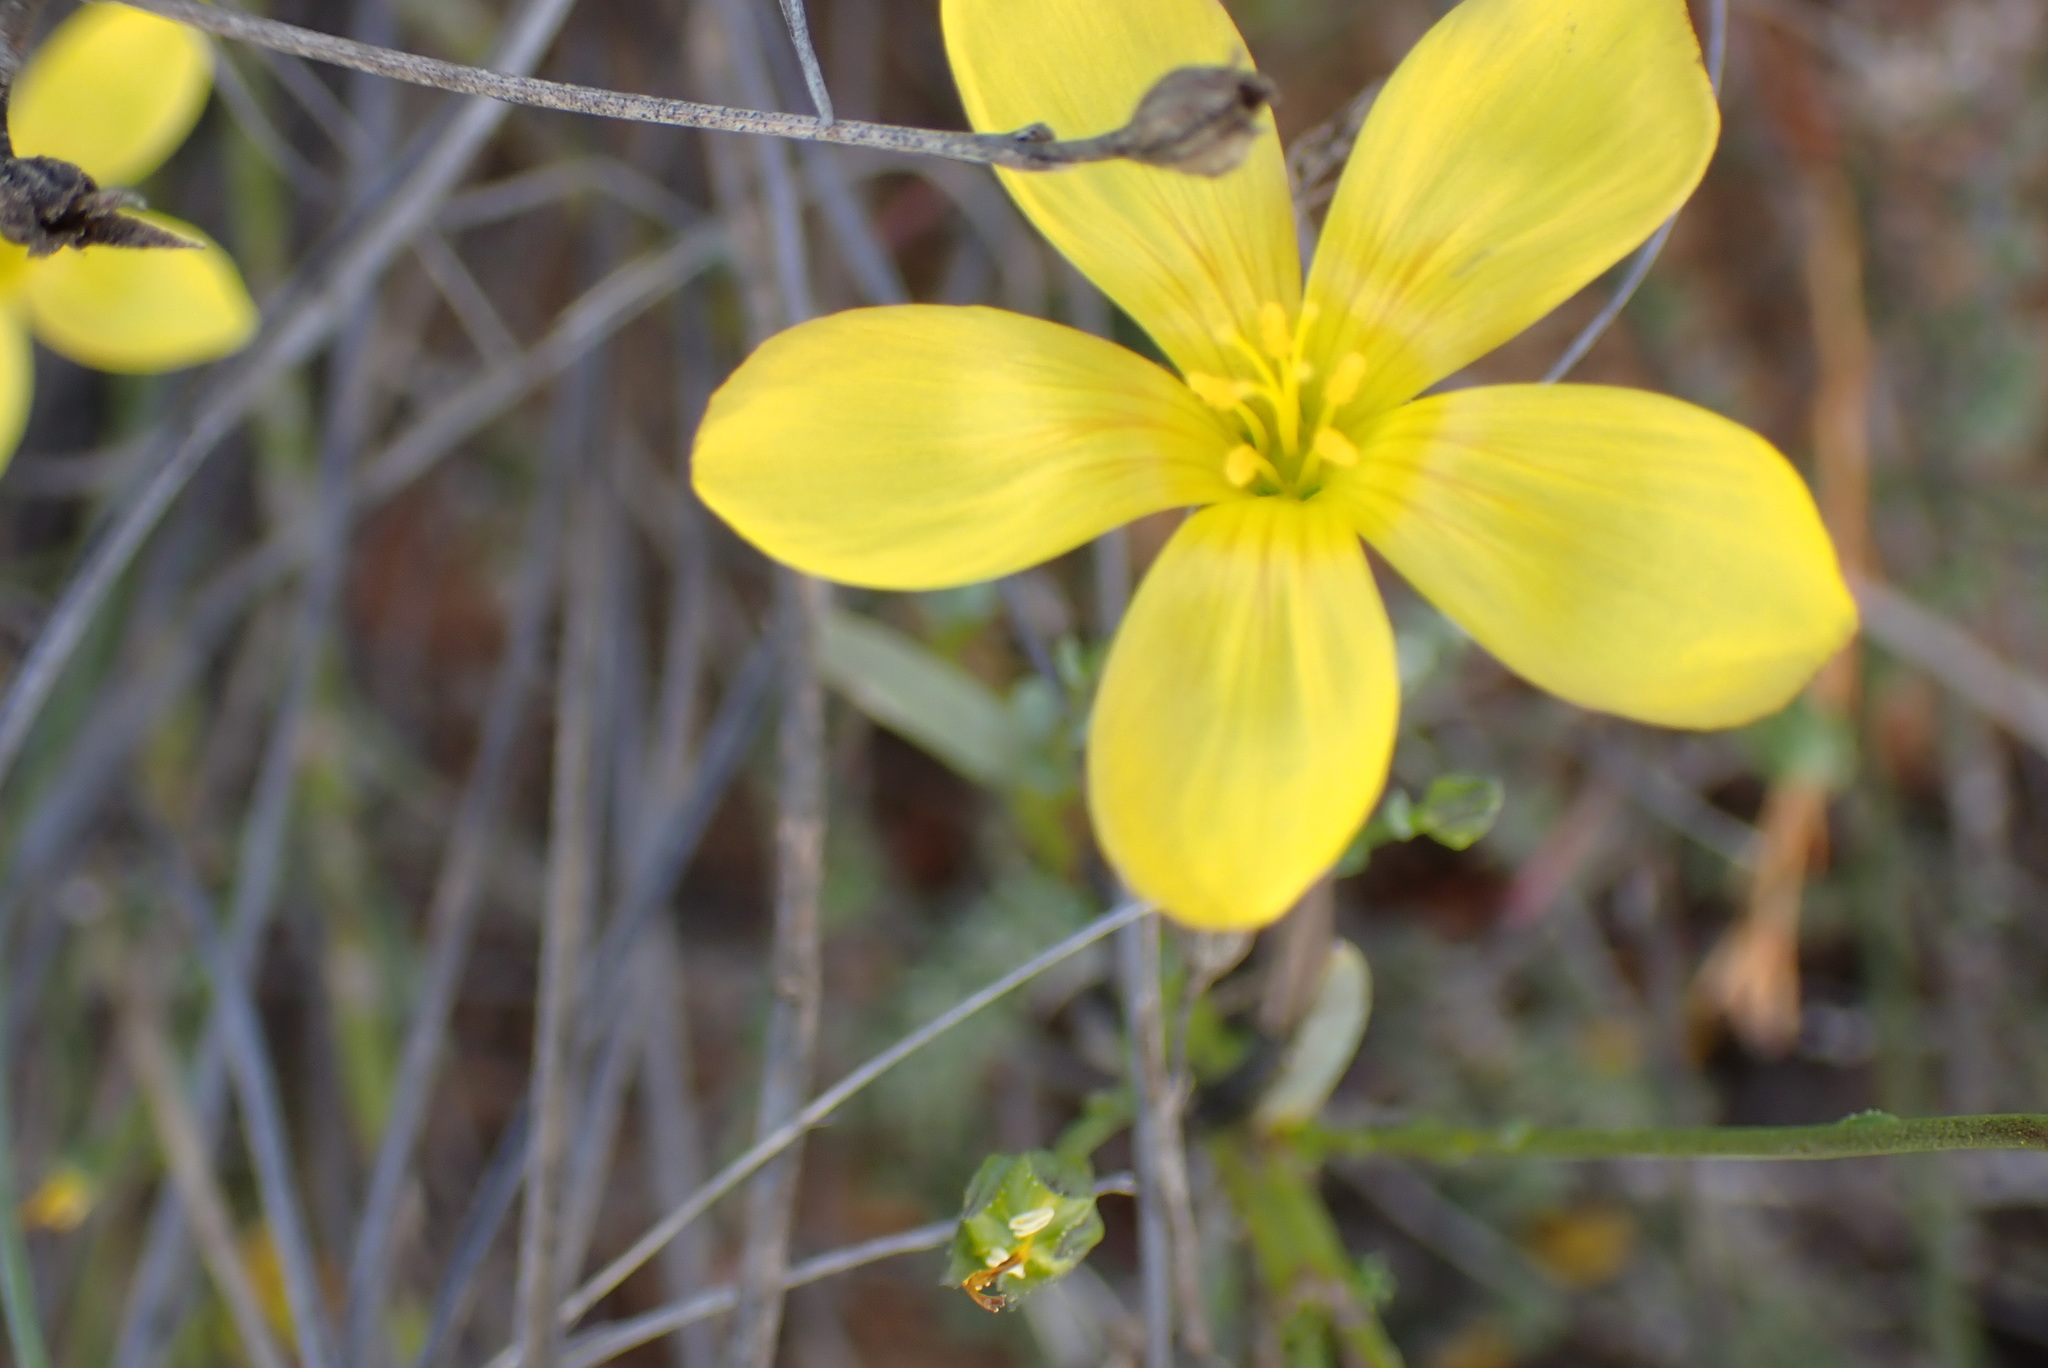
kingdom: Plantae
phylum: Tracheophyta
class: Magnoliopsida
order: Malpighiales
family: Linaceae
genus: Linum
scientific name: Linum africanum
